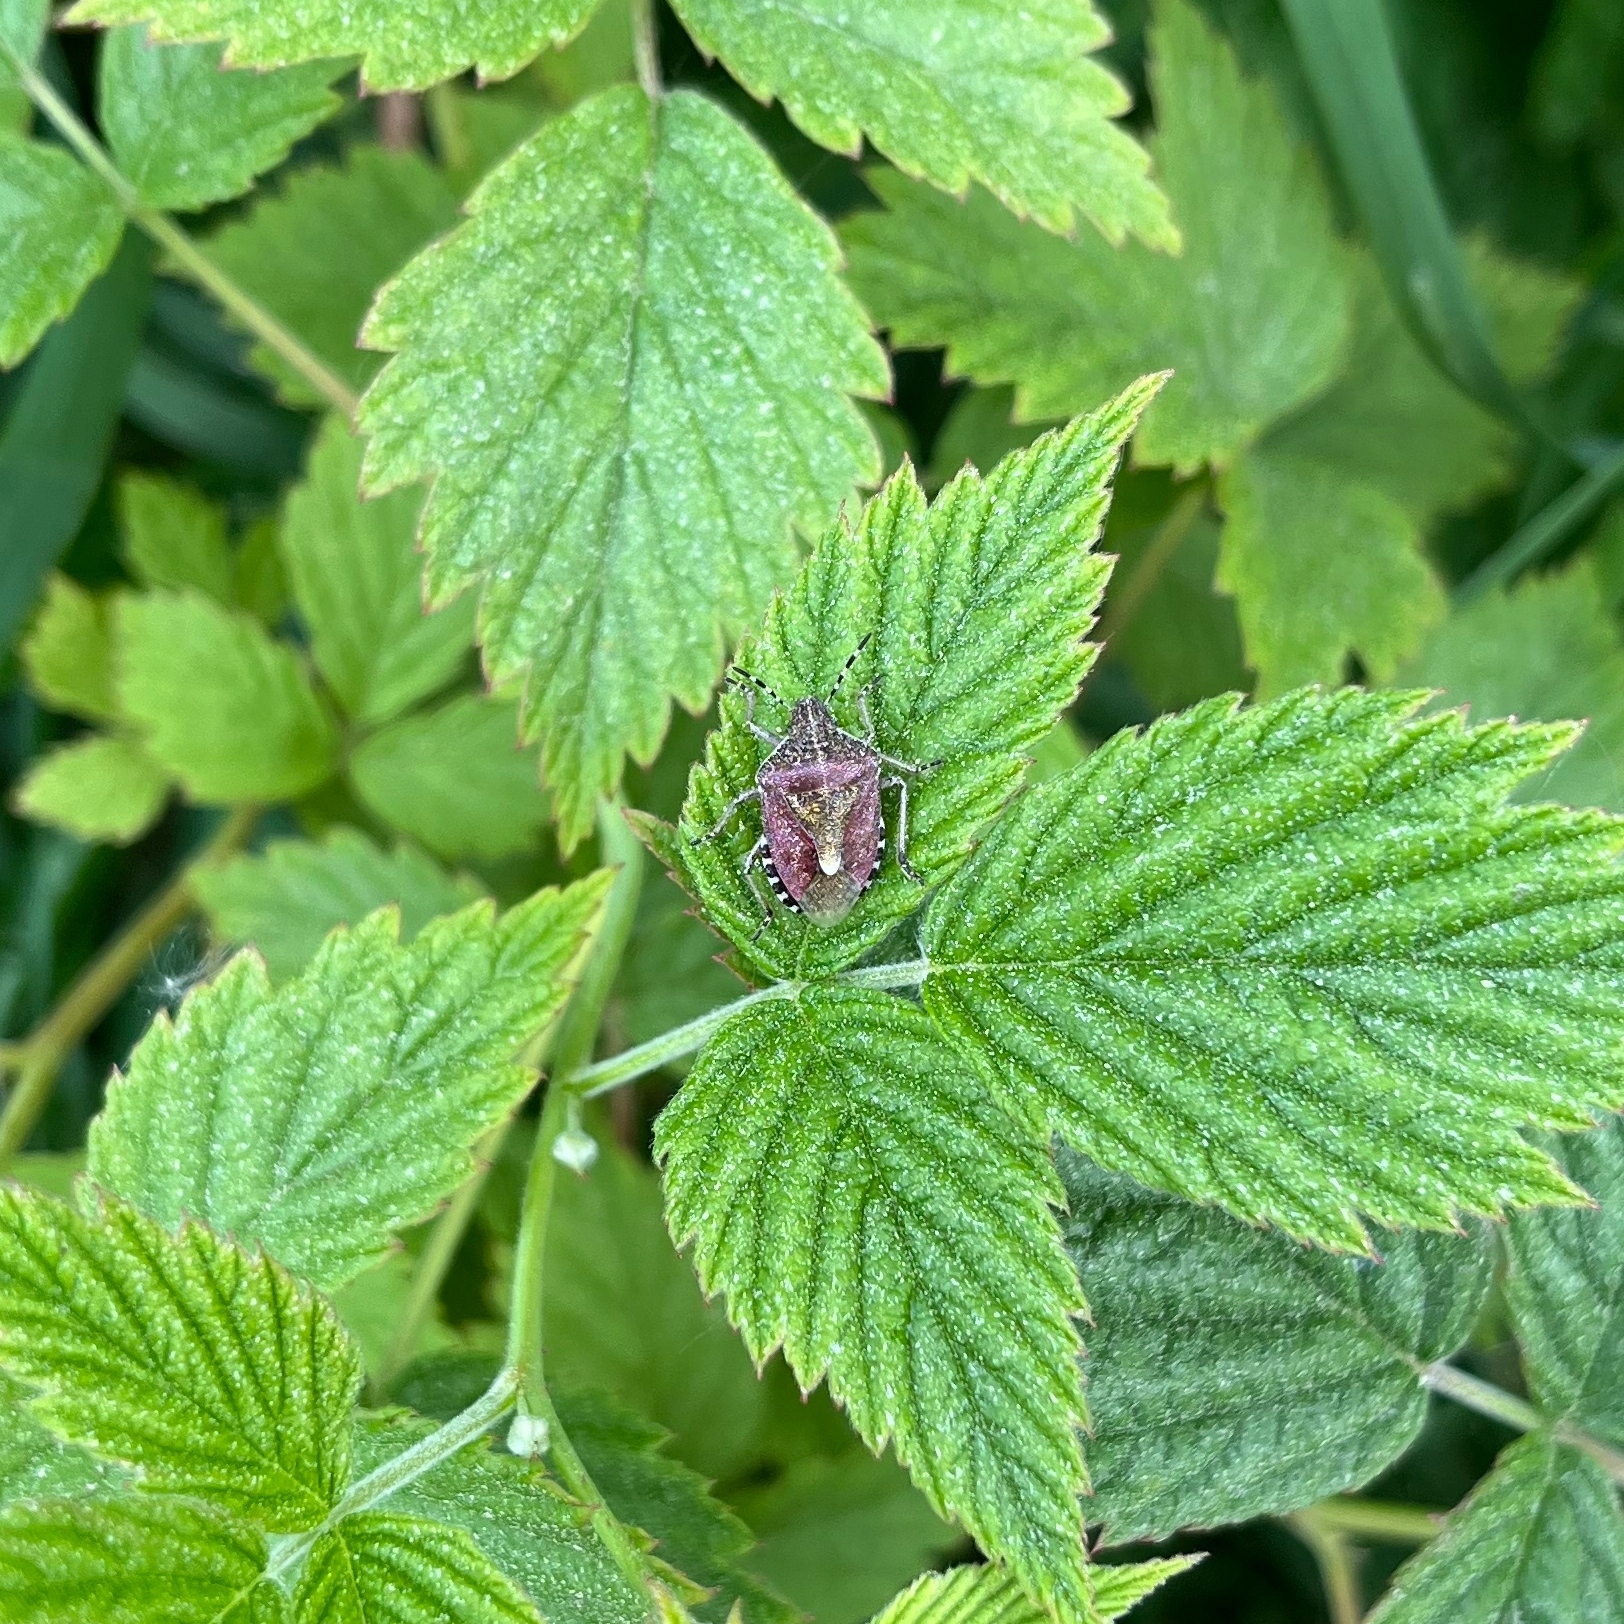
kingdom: Animalia
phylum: Arthropoda
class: Insecta
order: Hemiptera
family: Pentatomidae
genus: Dolycoris
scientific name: Dolycoris baccarum
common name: Sloe bug
